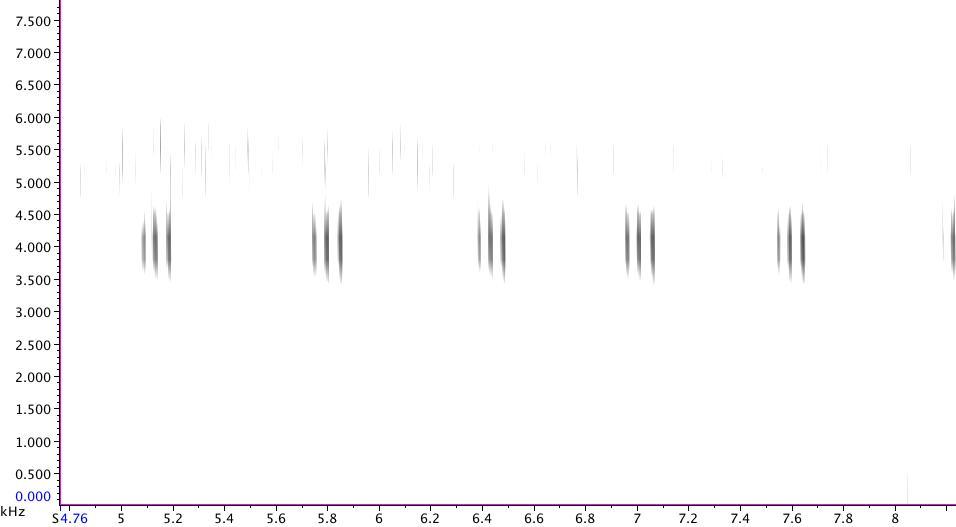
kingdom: Animalia
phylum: Arthropoda
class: Insecta
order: Orthoptera
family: Gryllidae
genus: Gryllus
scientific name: Gryllus pennsylvanicus
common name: Fall field cricket
